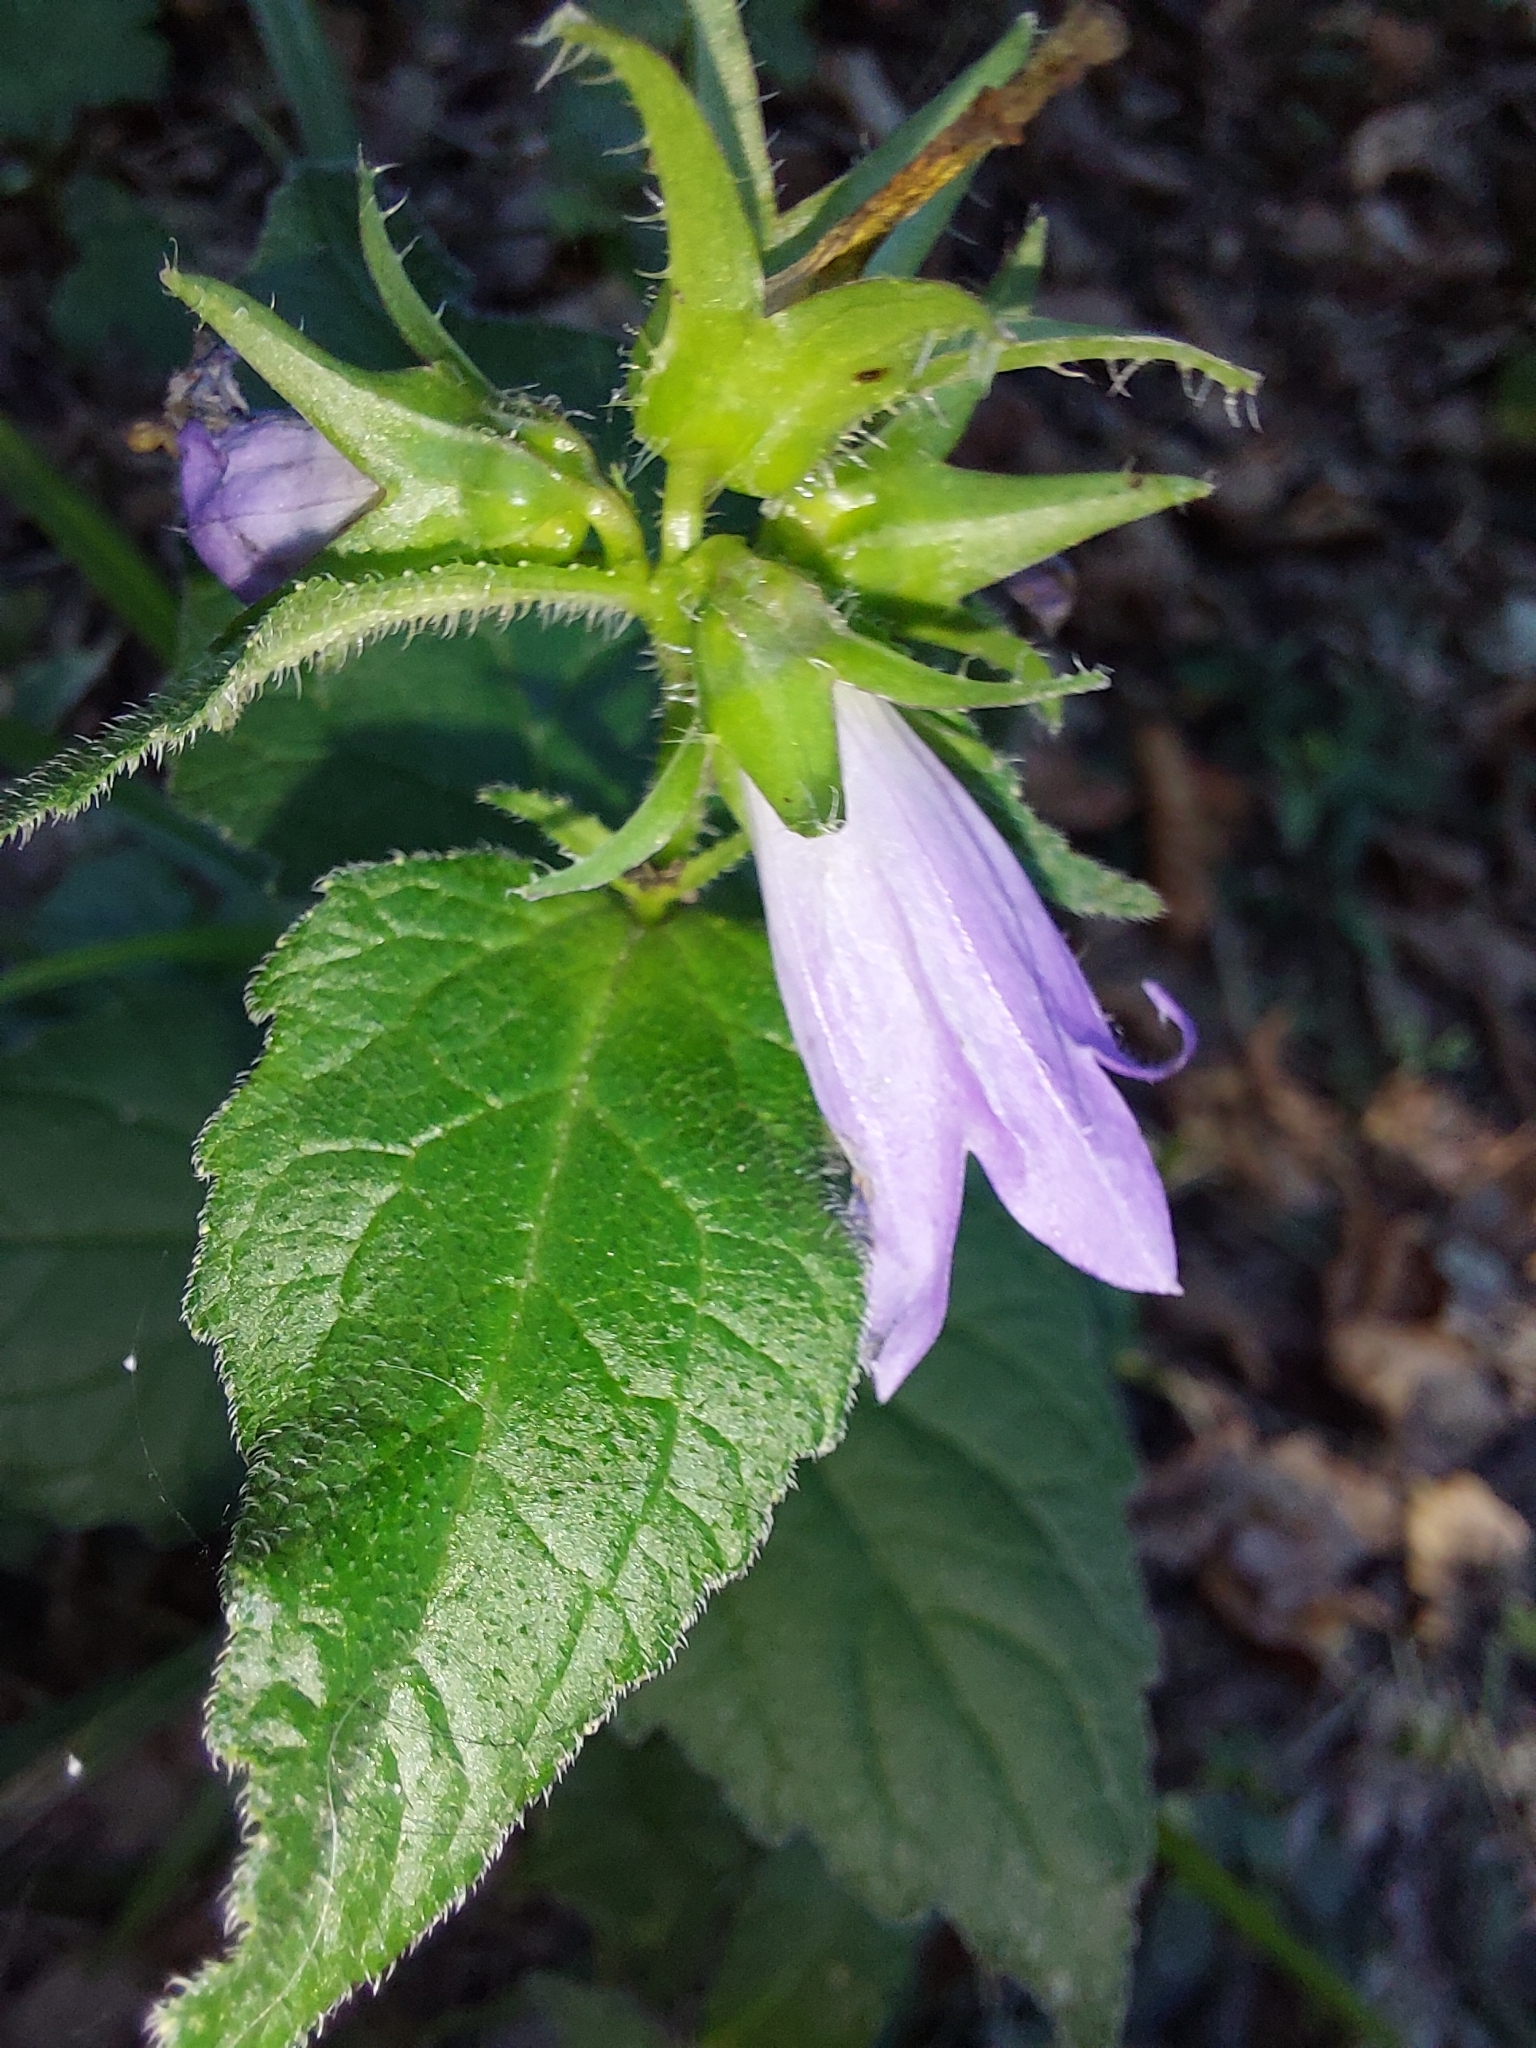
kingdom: Plantae
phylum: Tracheophyta
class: Magnoliopsida
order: Asterales
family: Campanulaceae
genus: Campanula
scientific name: Campanula trachelium
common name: Nettle-leaved bellflower
